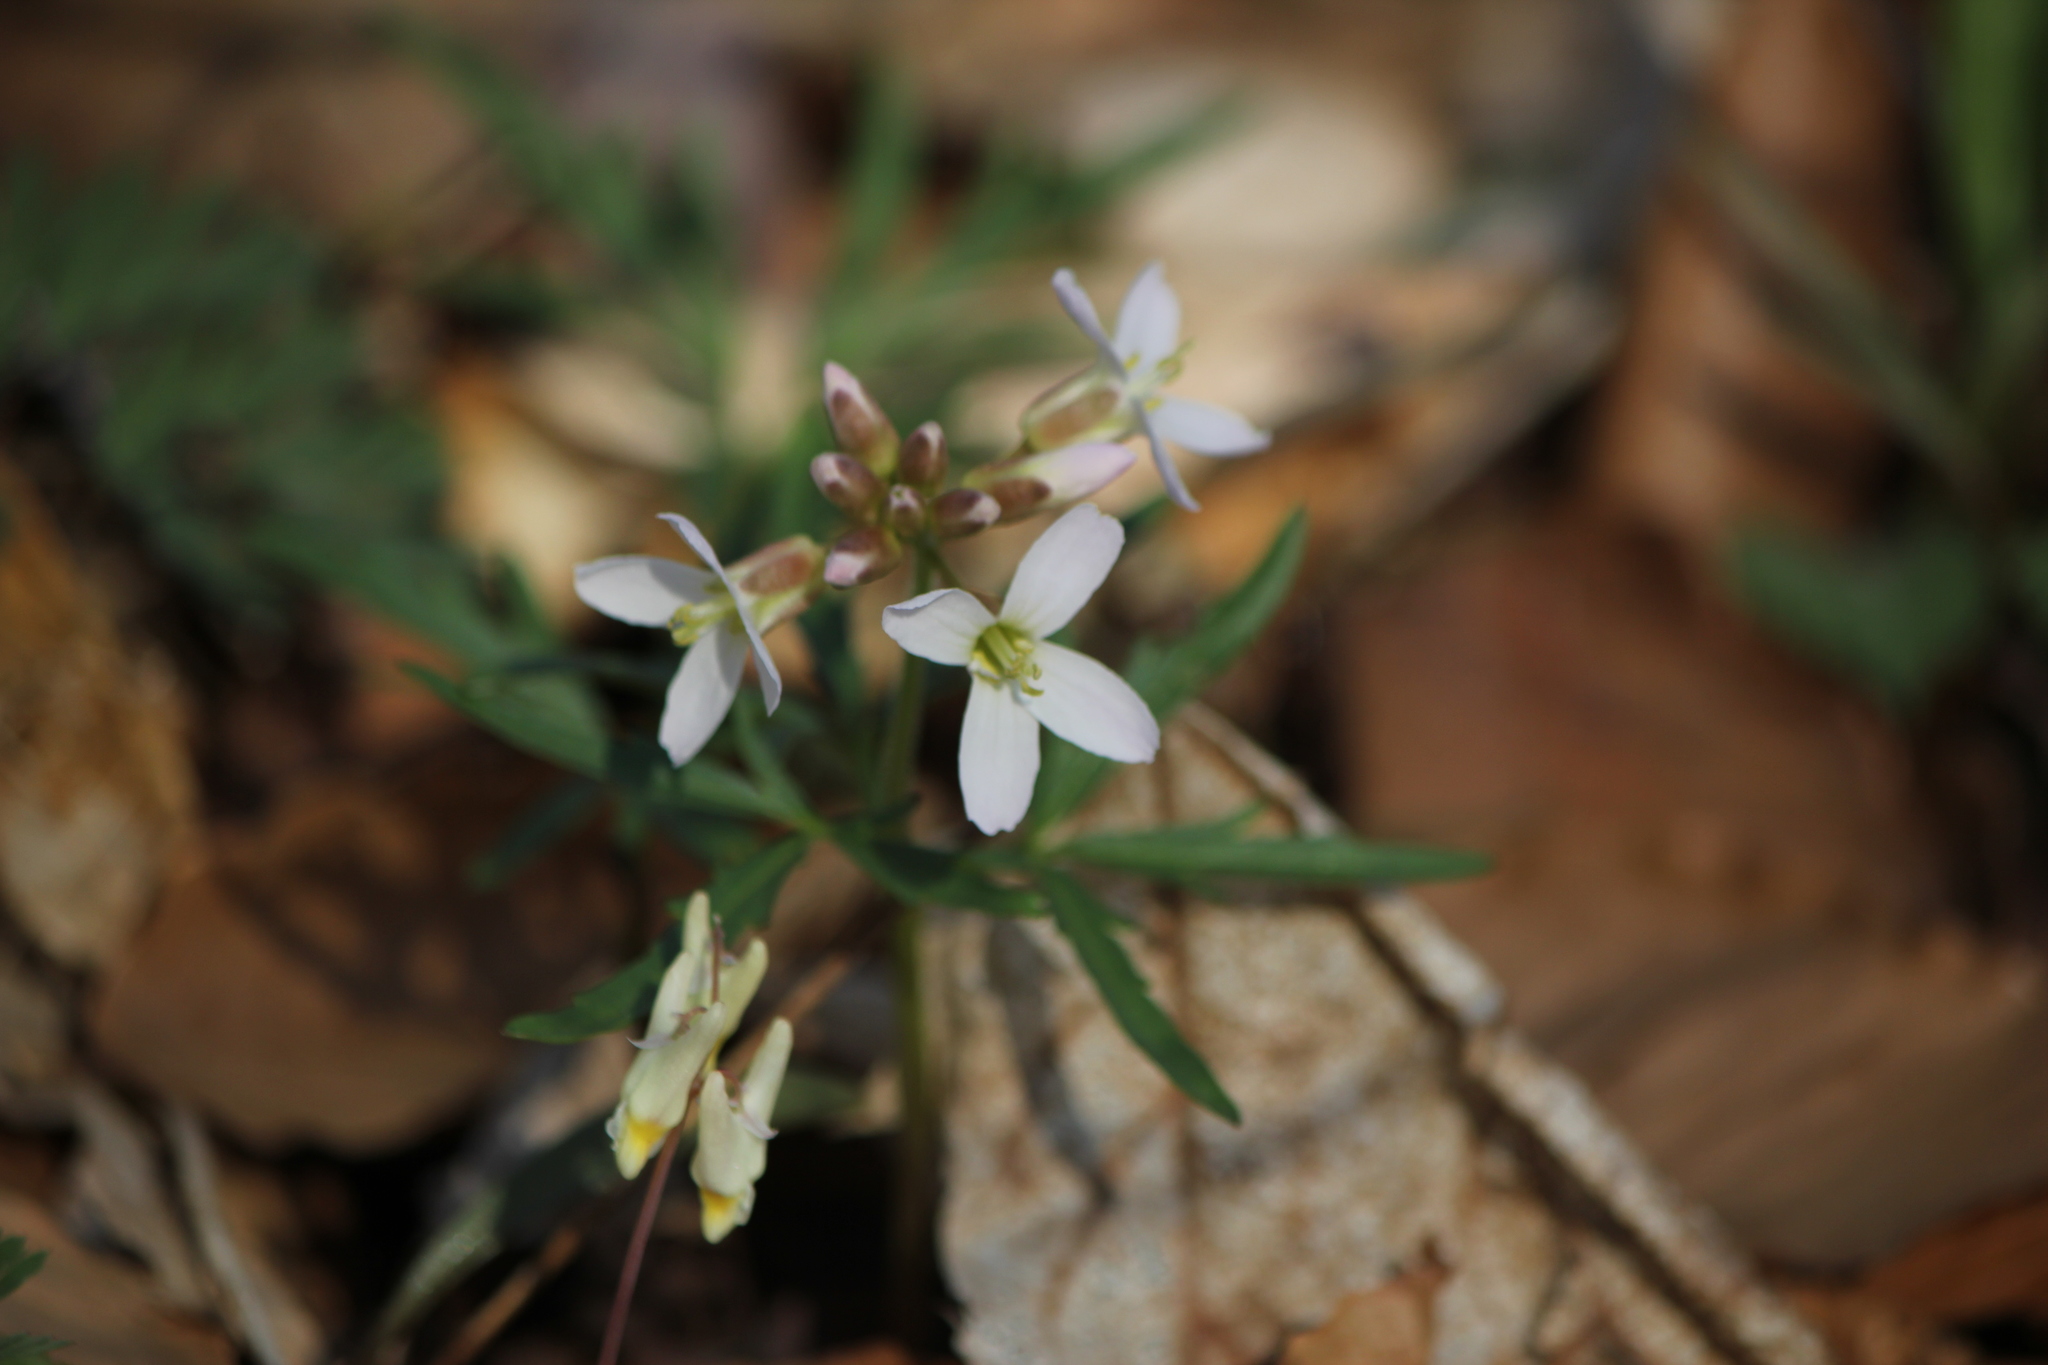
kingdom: Plantae
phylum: Tracheophyta
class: Magnoliopsida
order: Brassicales
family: Brassicaceae
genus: Cardamine
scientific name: Cardamine concatenata
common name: Cut-leaf toothcup
